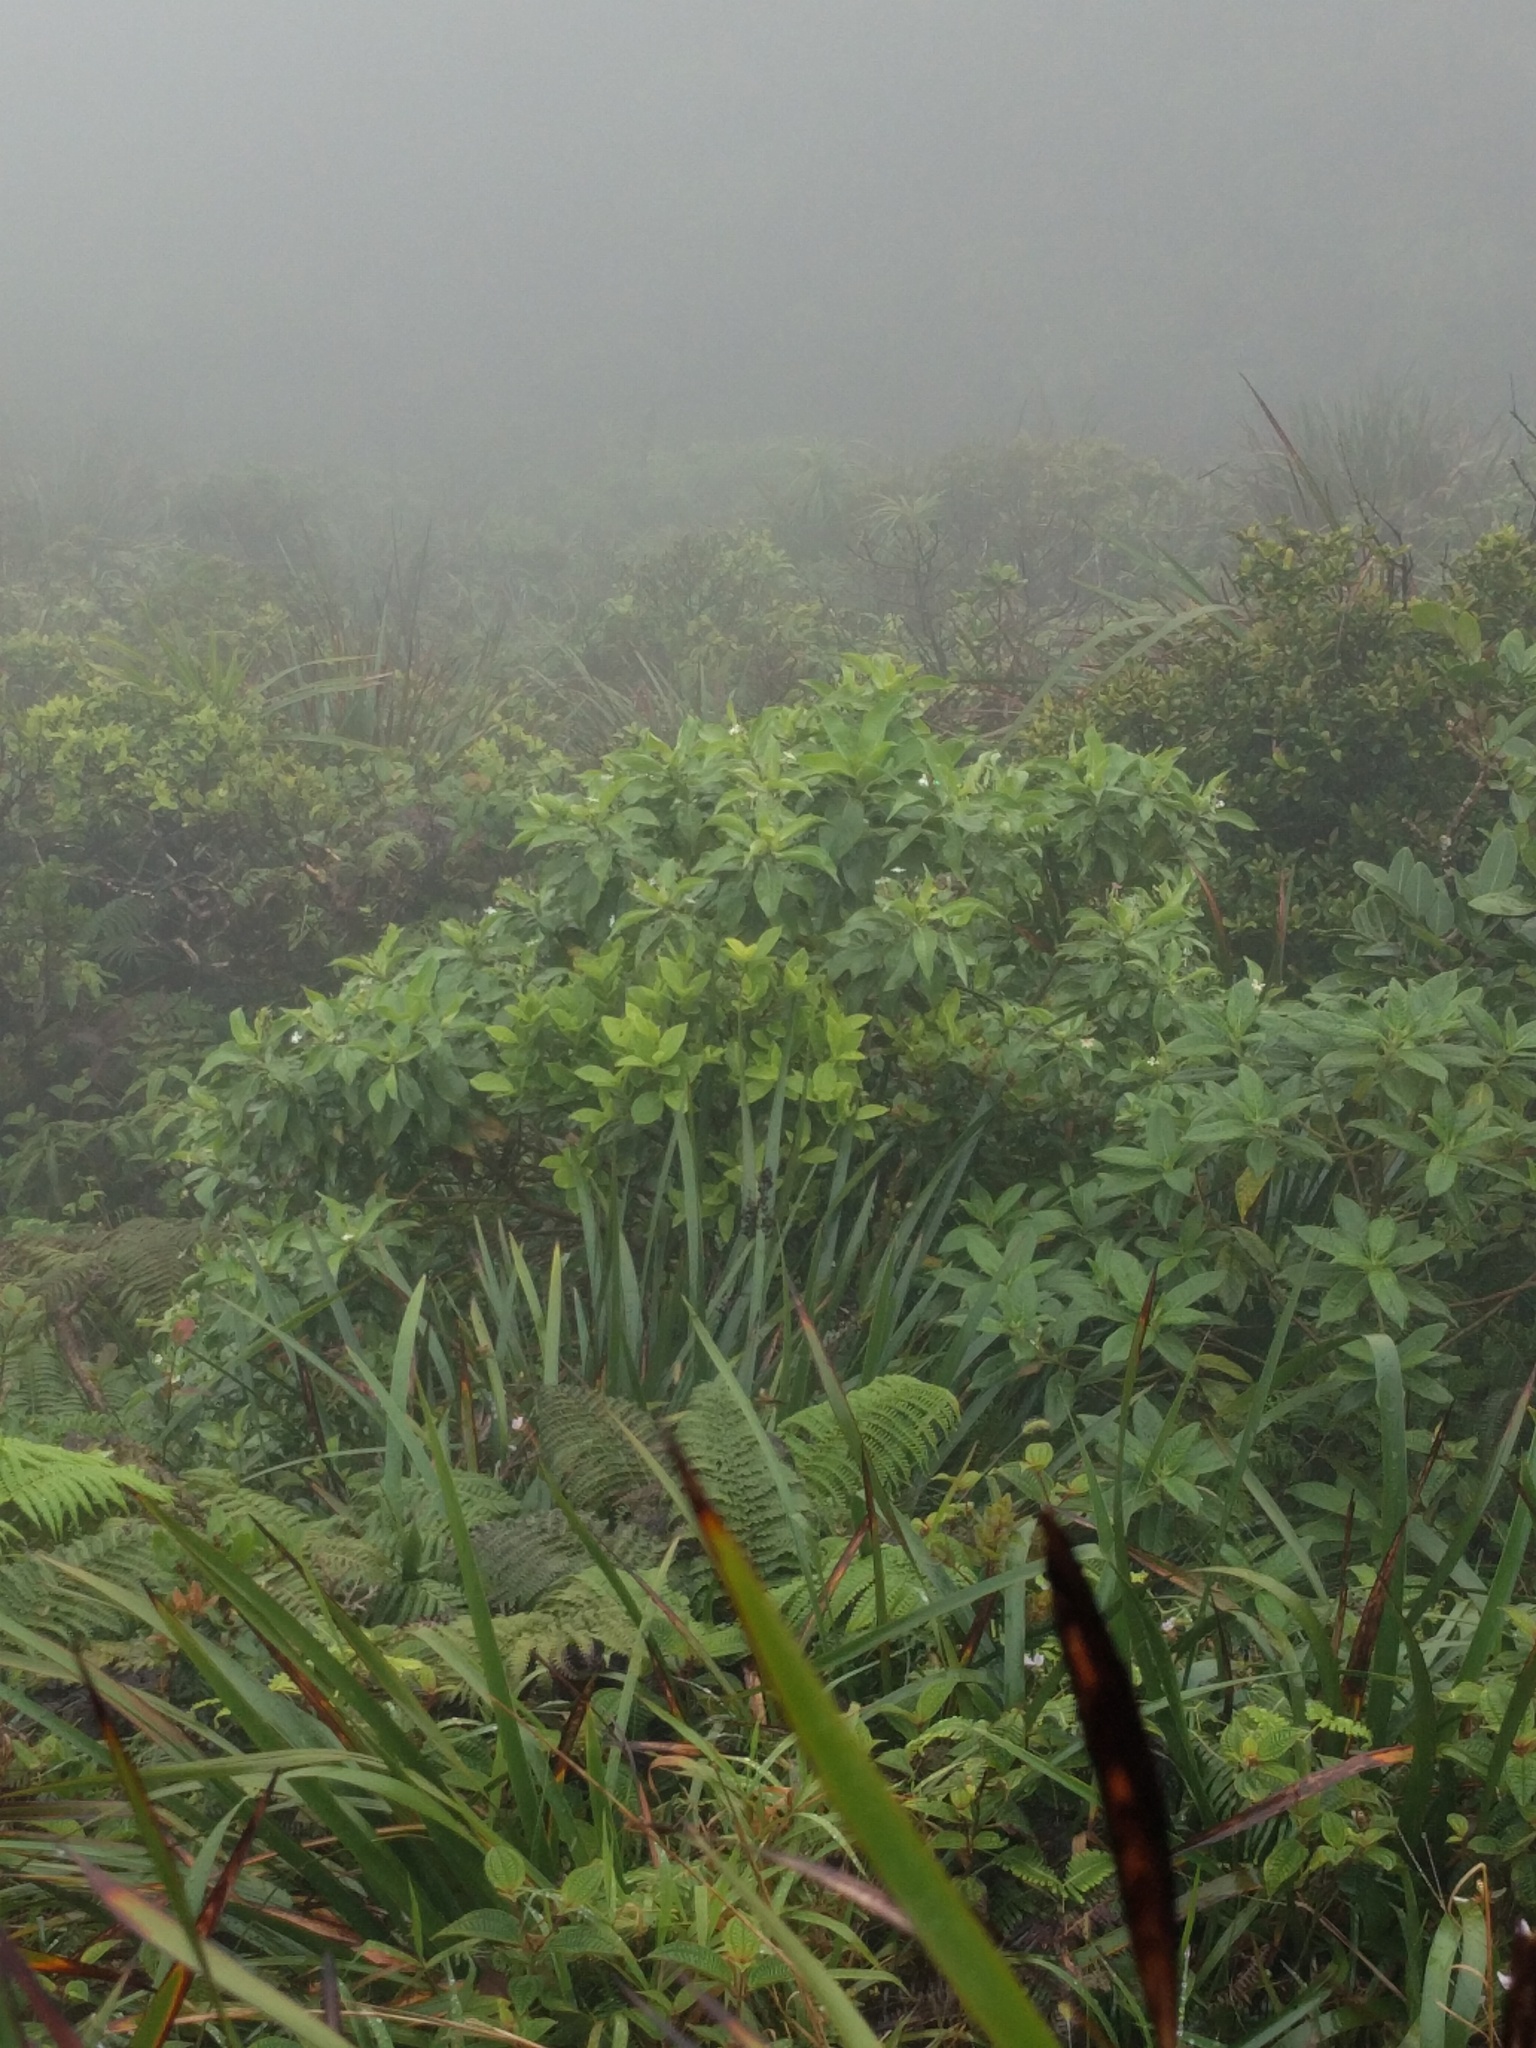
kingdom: Plantae
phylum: Tracheophyta
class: Magnoliopsida
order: Asterales
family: Goodeniaceae
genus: Scaevola
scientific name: Scaevola gaudichaudiana
